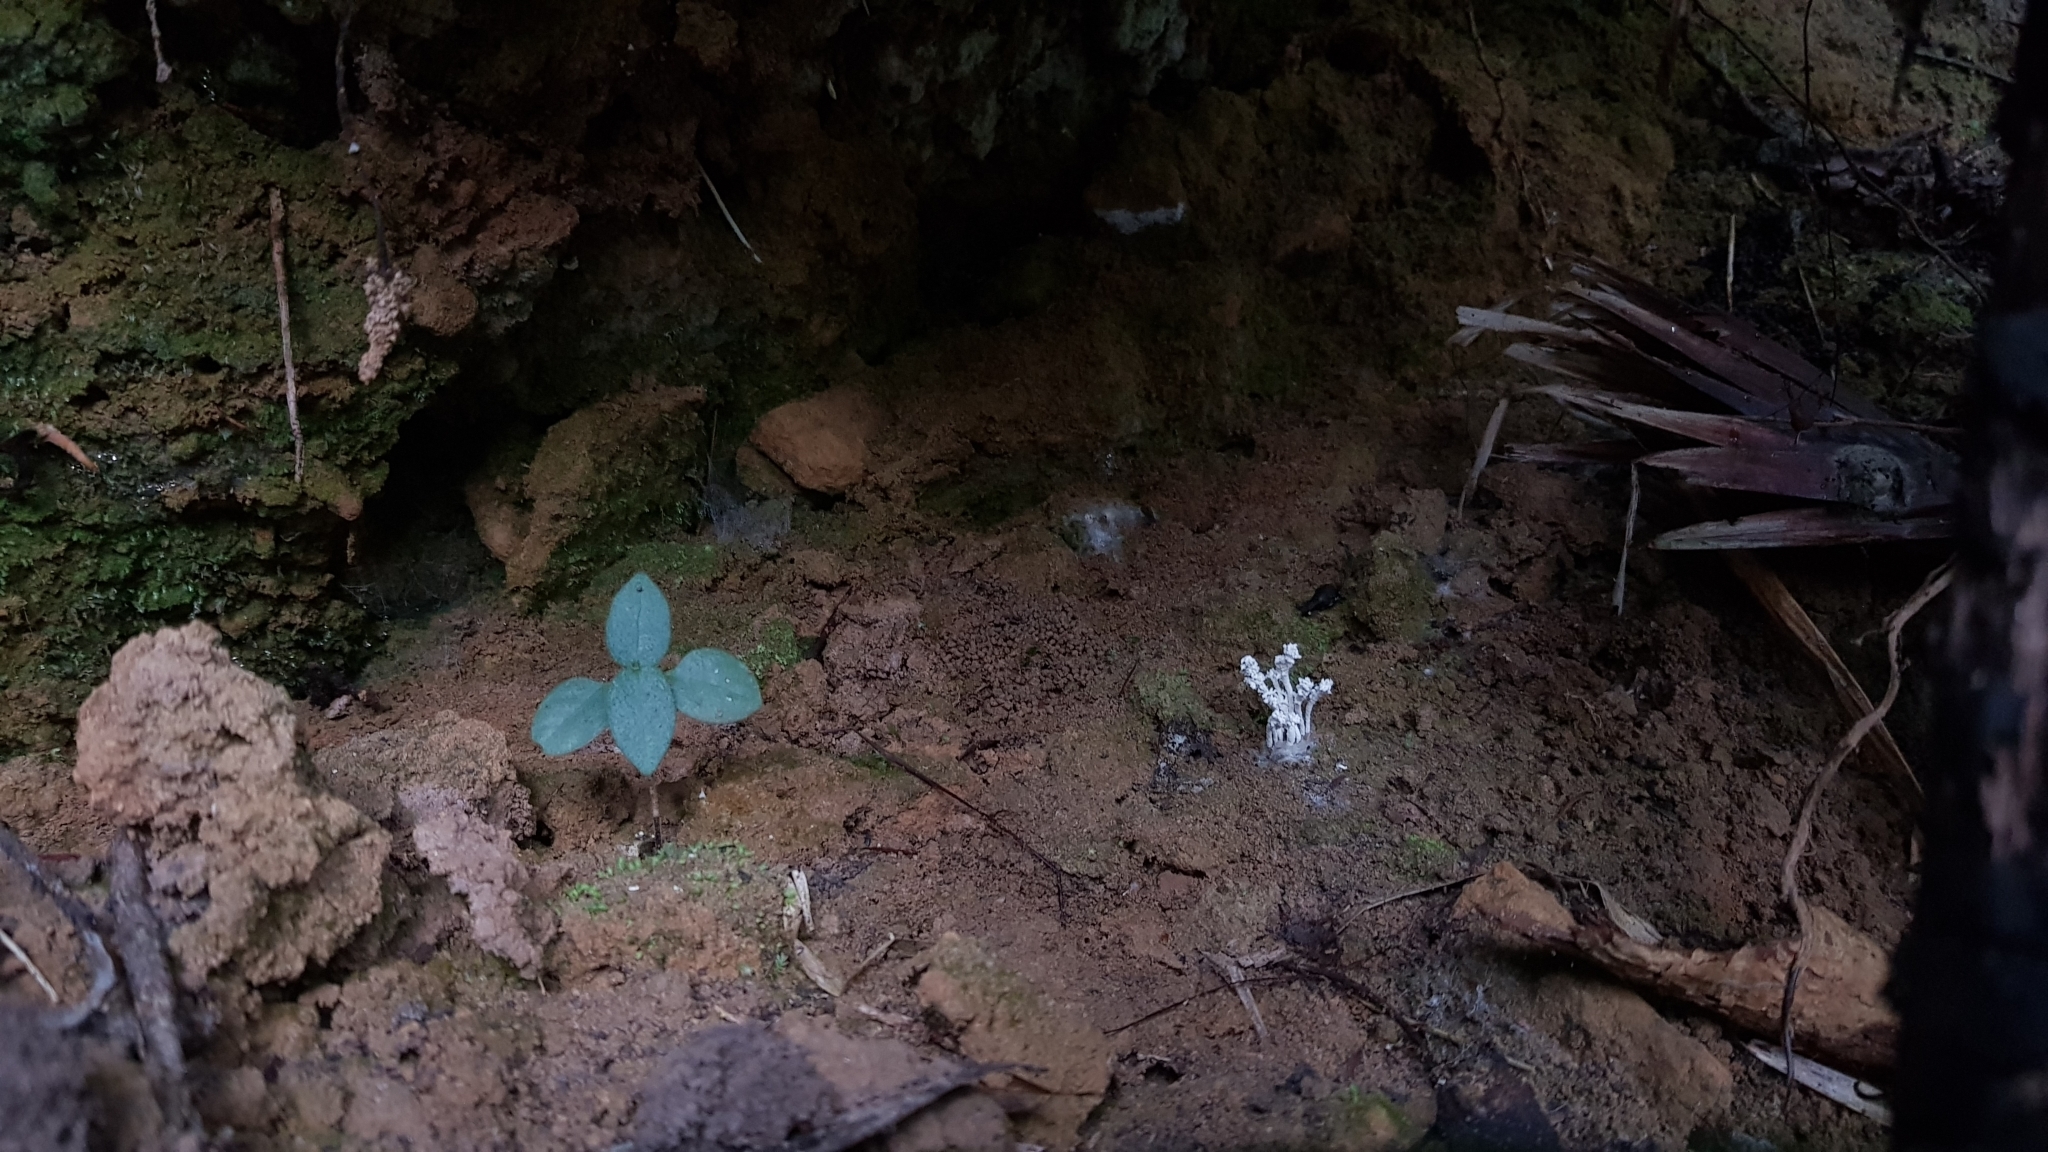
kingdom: Fungi
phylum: Ascomycota
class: Sordariomycetes
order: Hypocreales
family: Cordycipitaceae
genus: Cordyceps
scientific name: Cordyceps tenuipes
